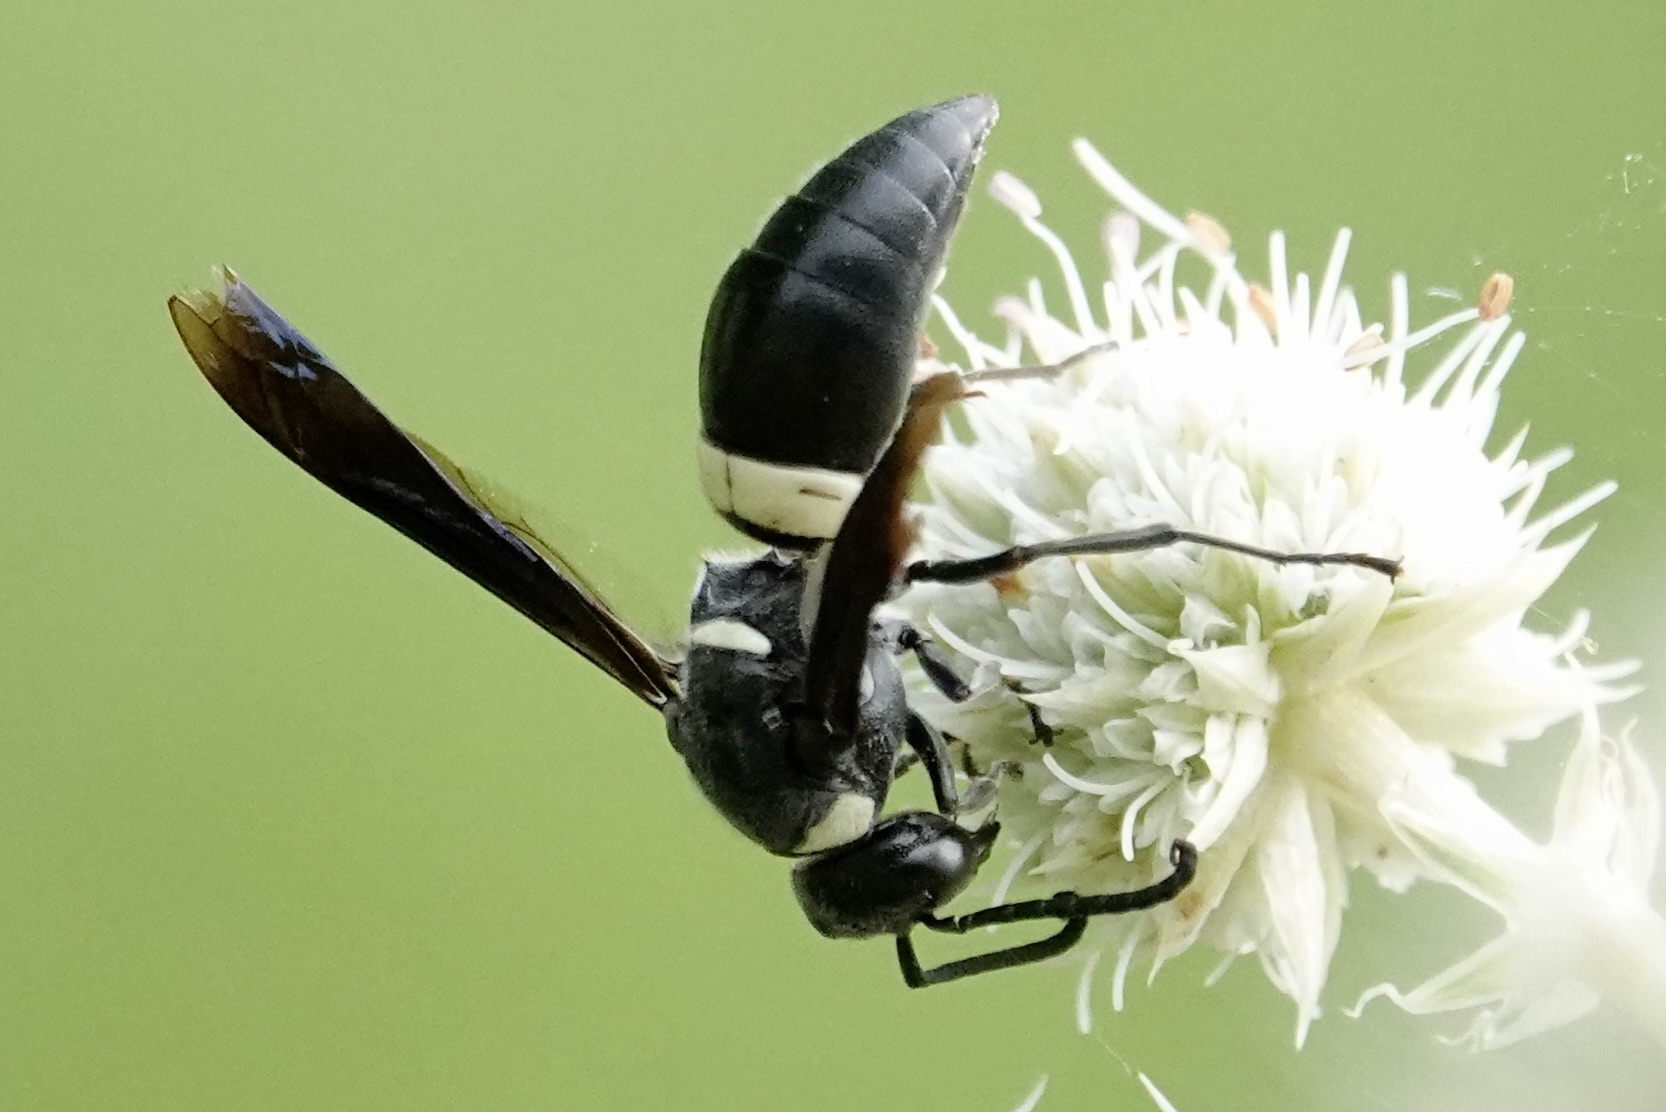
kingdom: Animalia
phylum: Arthropoda
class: Insecta
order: Hymenoptera
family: Eumenidae
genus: Monobia
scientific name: Monobia quadridens
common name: Four-toothed mason wasp
